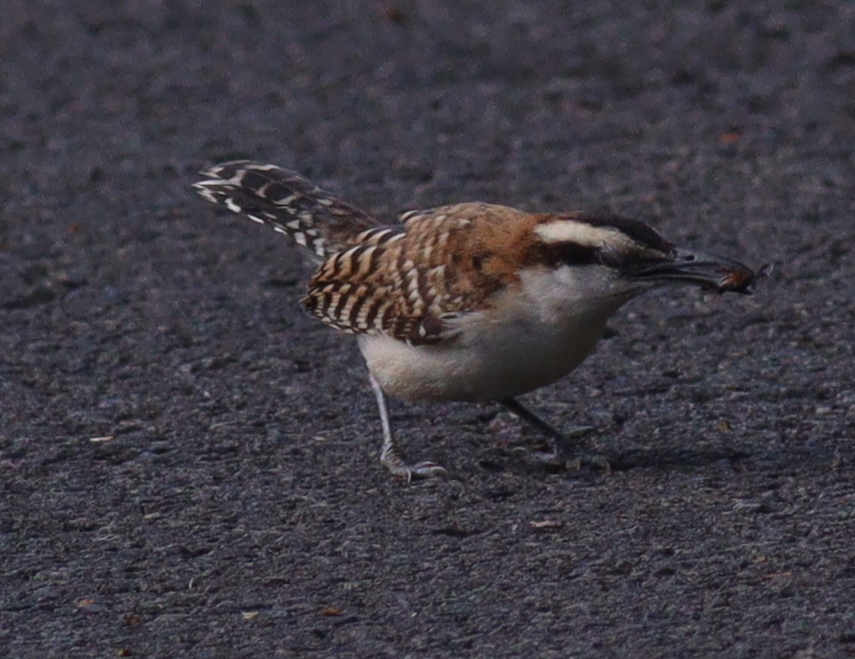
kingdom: Animalia
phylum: Chordata
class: Aves
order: Passeriformes
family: Troglodytidae
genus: Campylorhynchus
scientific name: Campylorhynchus rufinucha
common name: Rufous-naped wren
